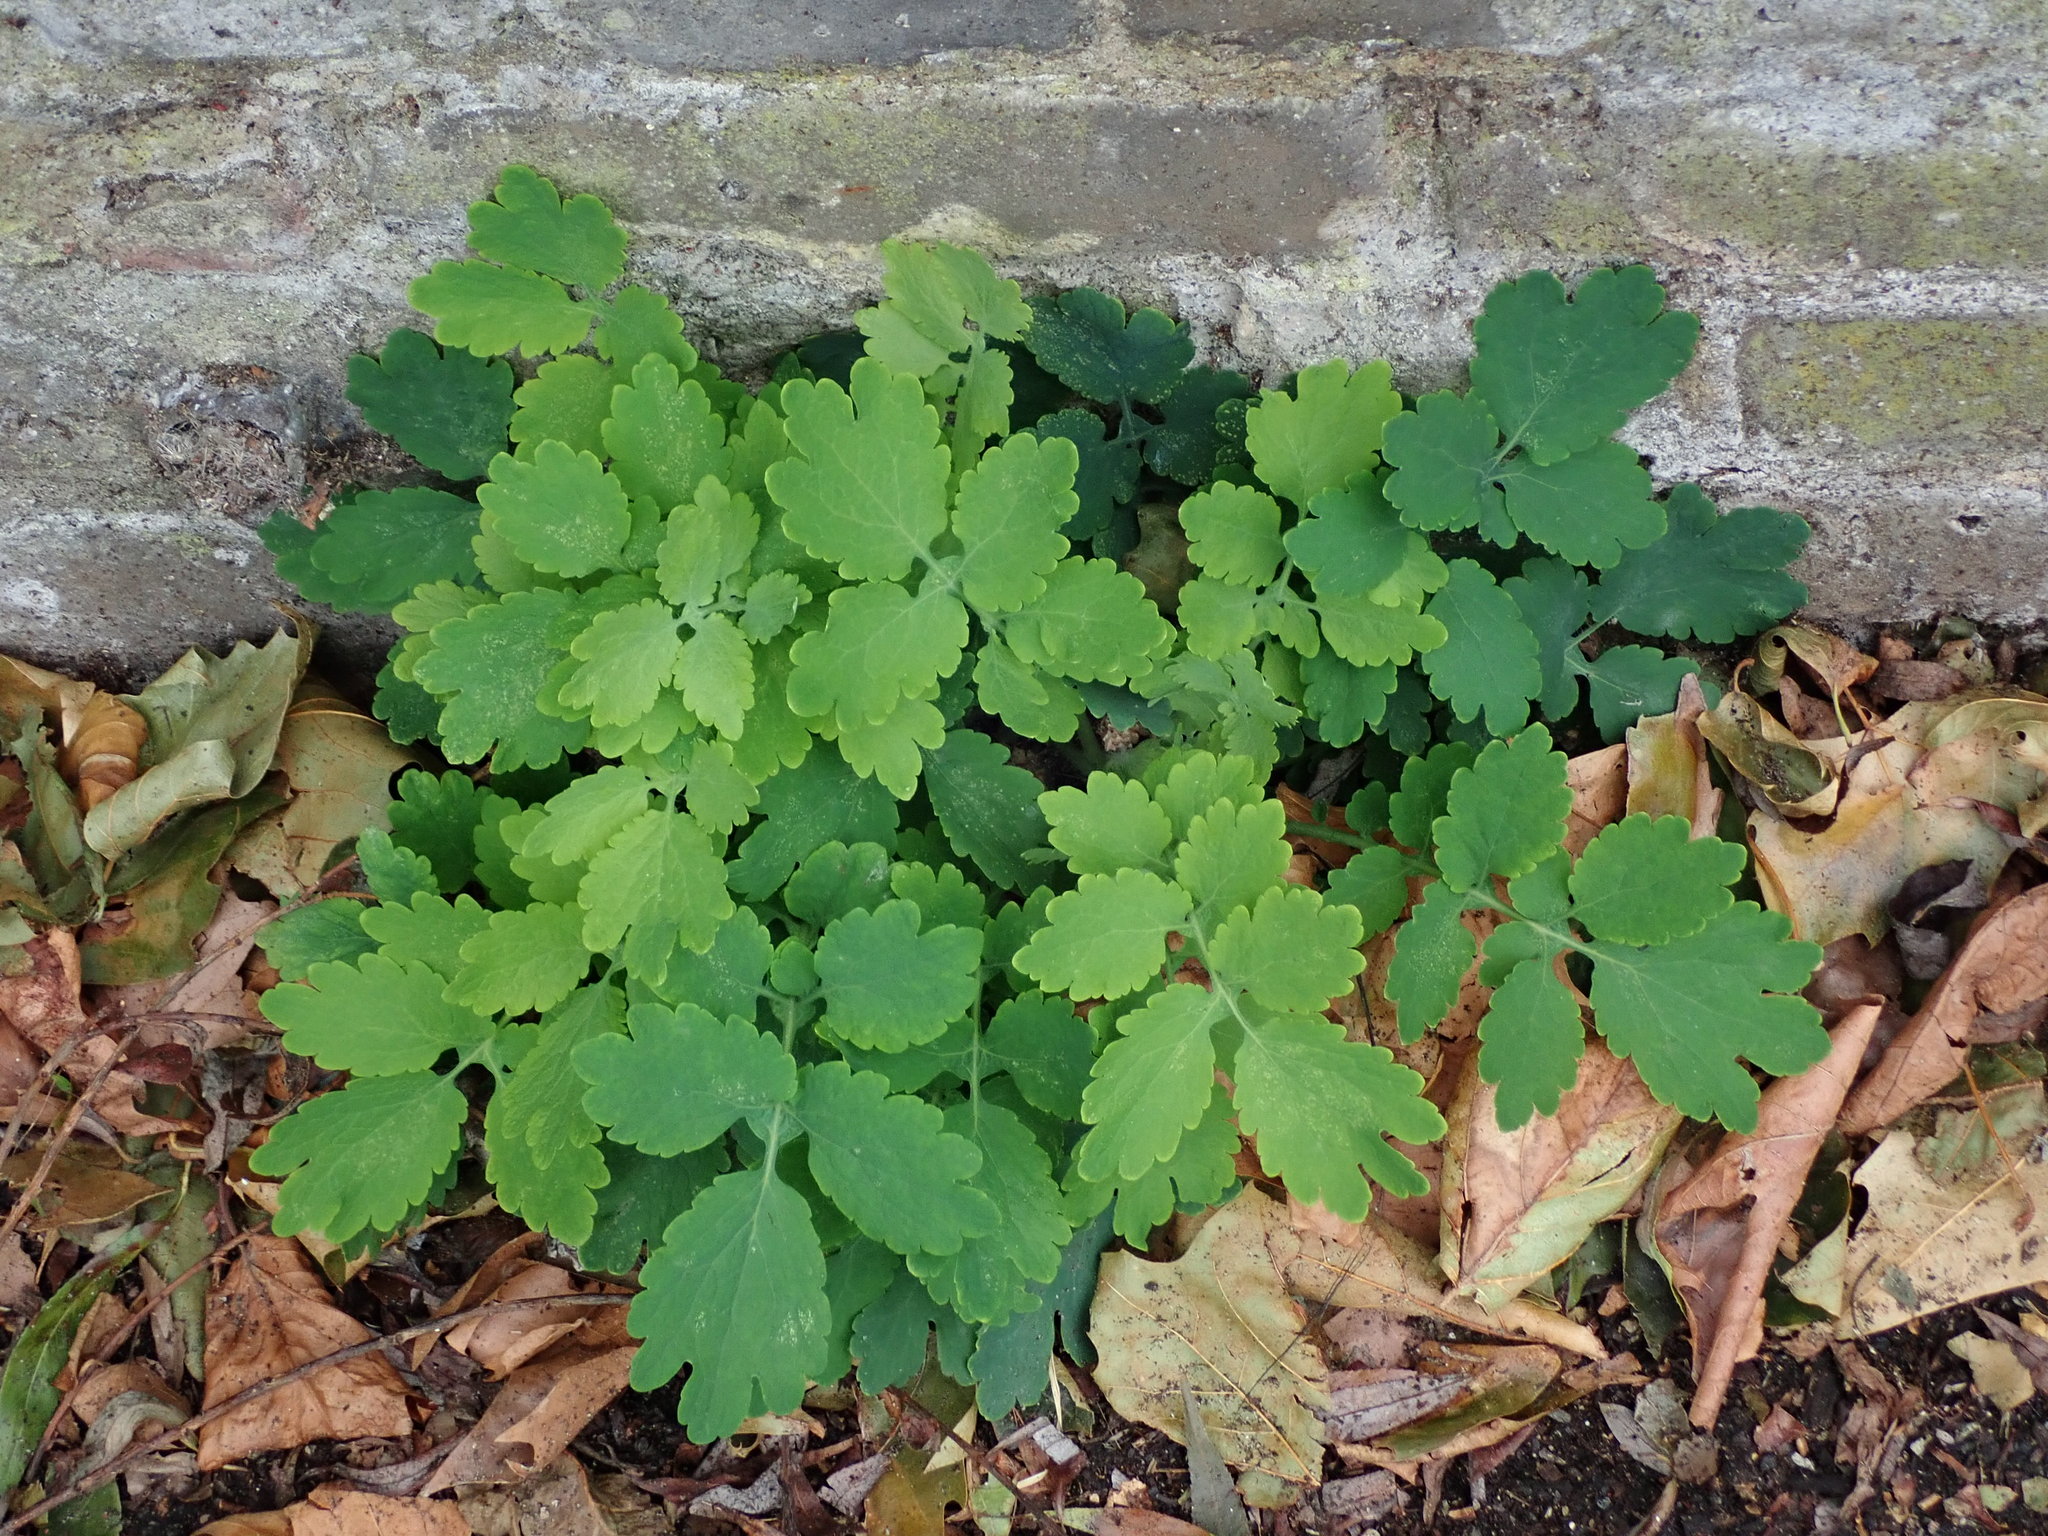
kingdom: Plantae
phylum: Tracheophyta
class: Magnoliopsida
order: Ranunculales
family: Papaveraceae
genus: Chelidonium
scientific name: Chelidonium majus
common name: Greater celandine
